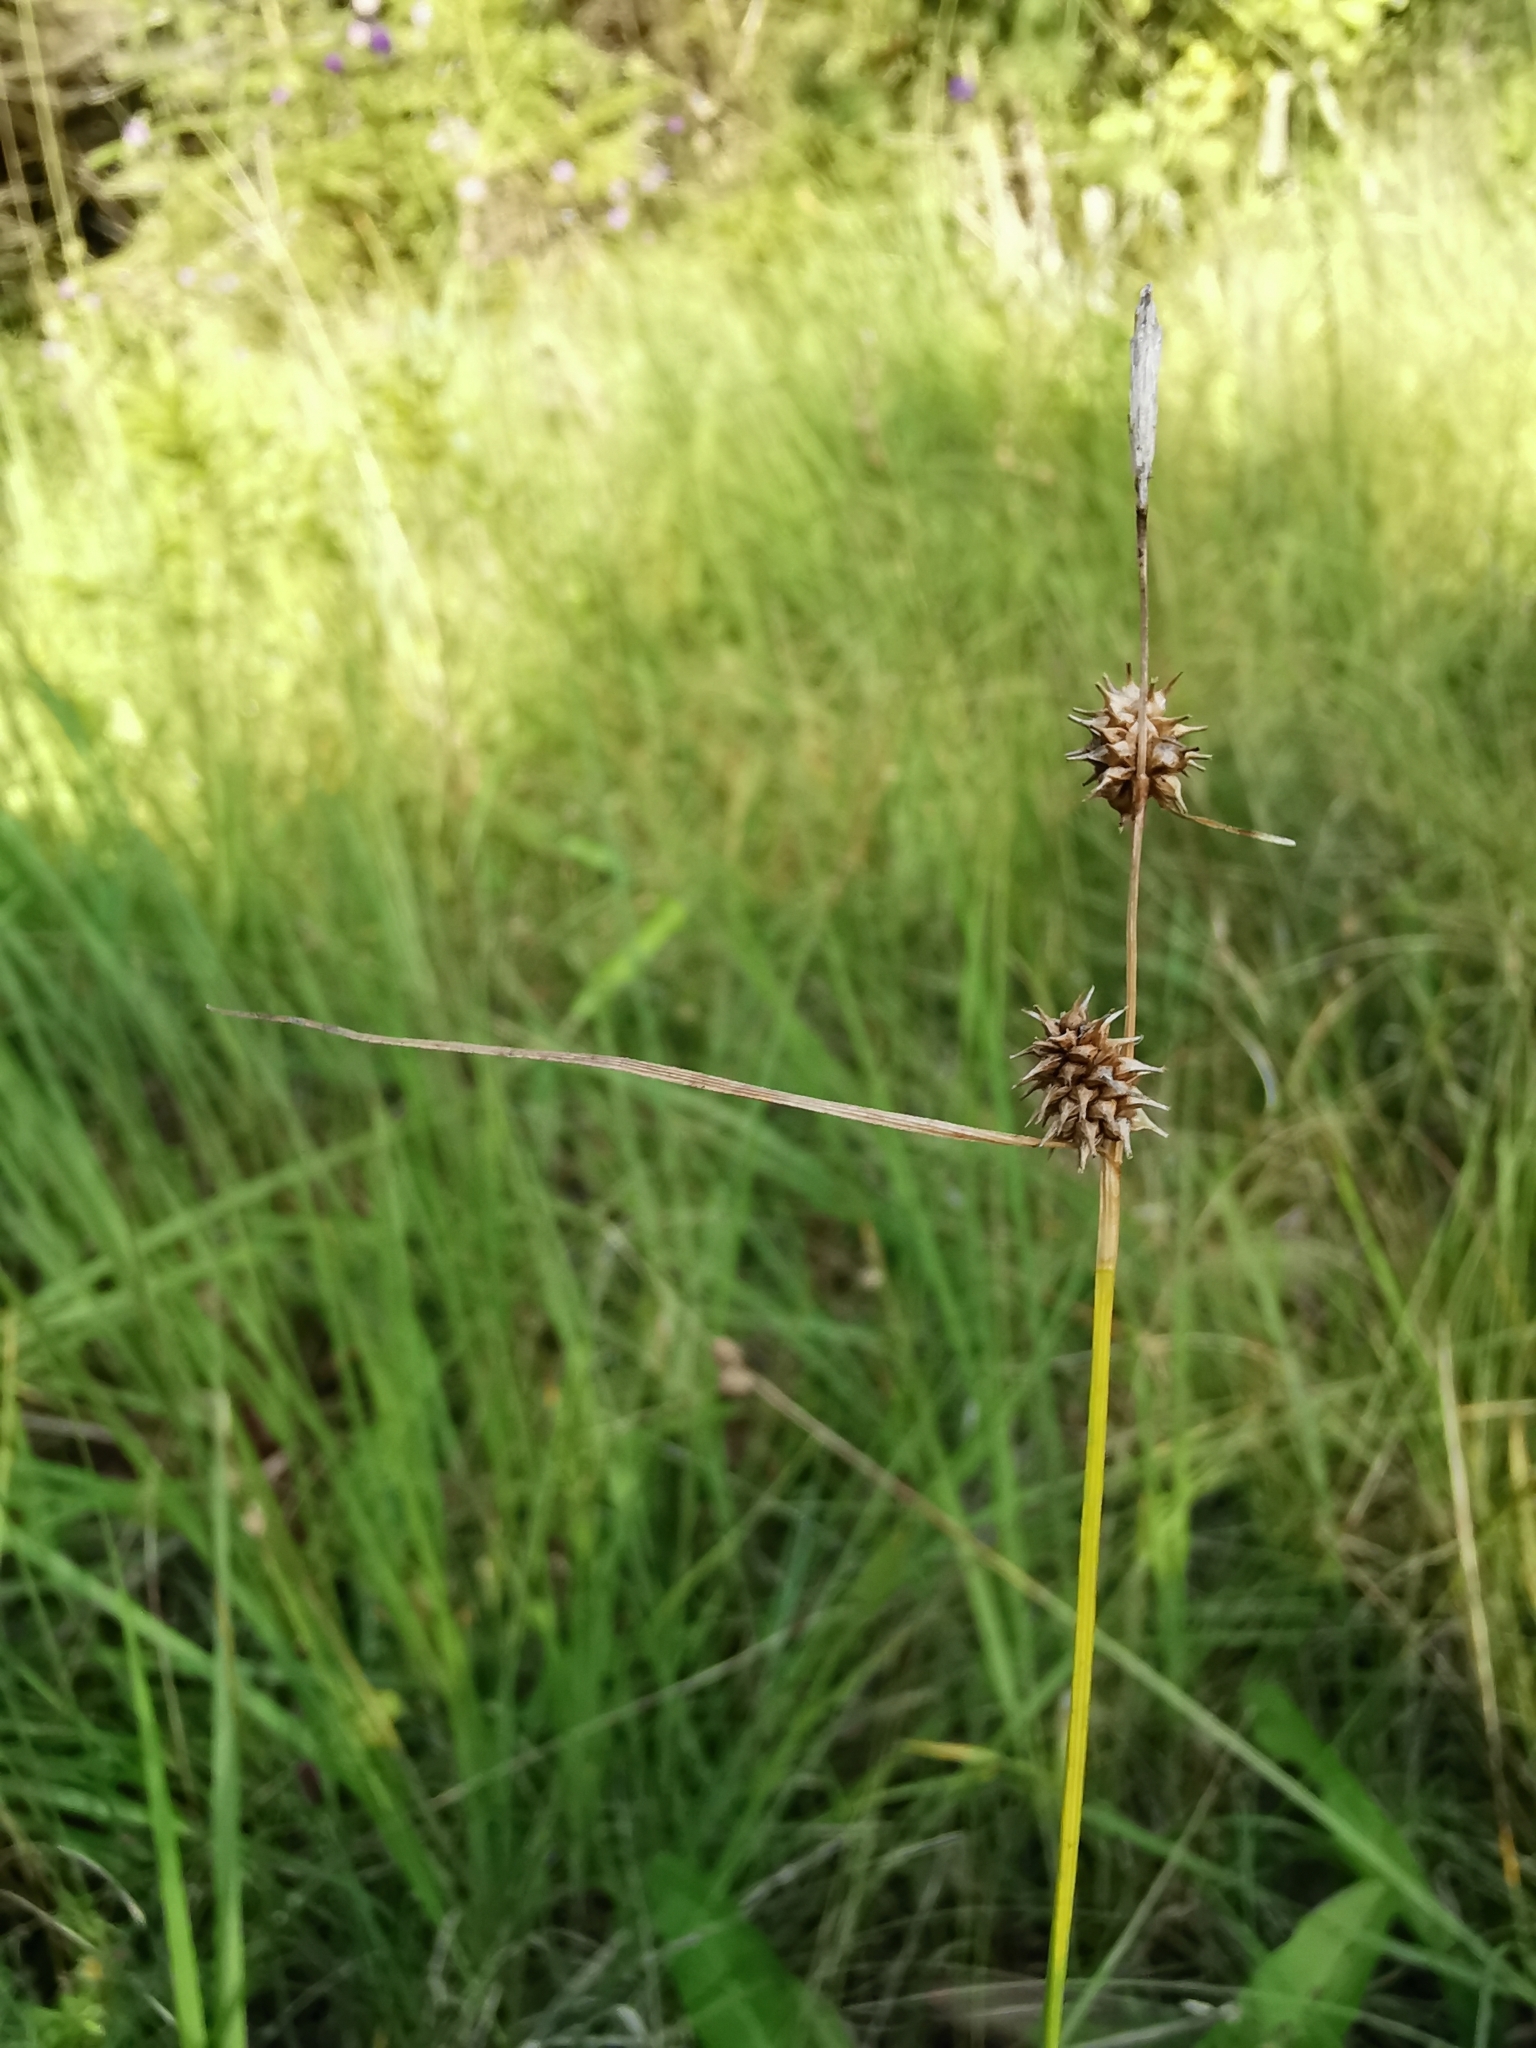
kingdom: Plantae
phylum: Tracheophyta
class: Liliopsida
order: Poales
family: Cyperaceae
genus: Carex
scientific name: Carex lepidocarpa
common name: Long-stalked yellow-sedge
